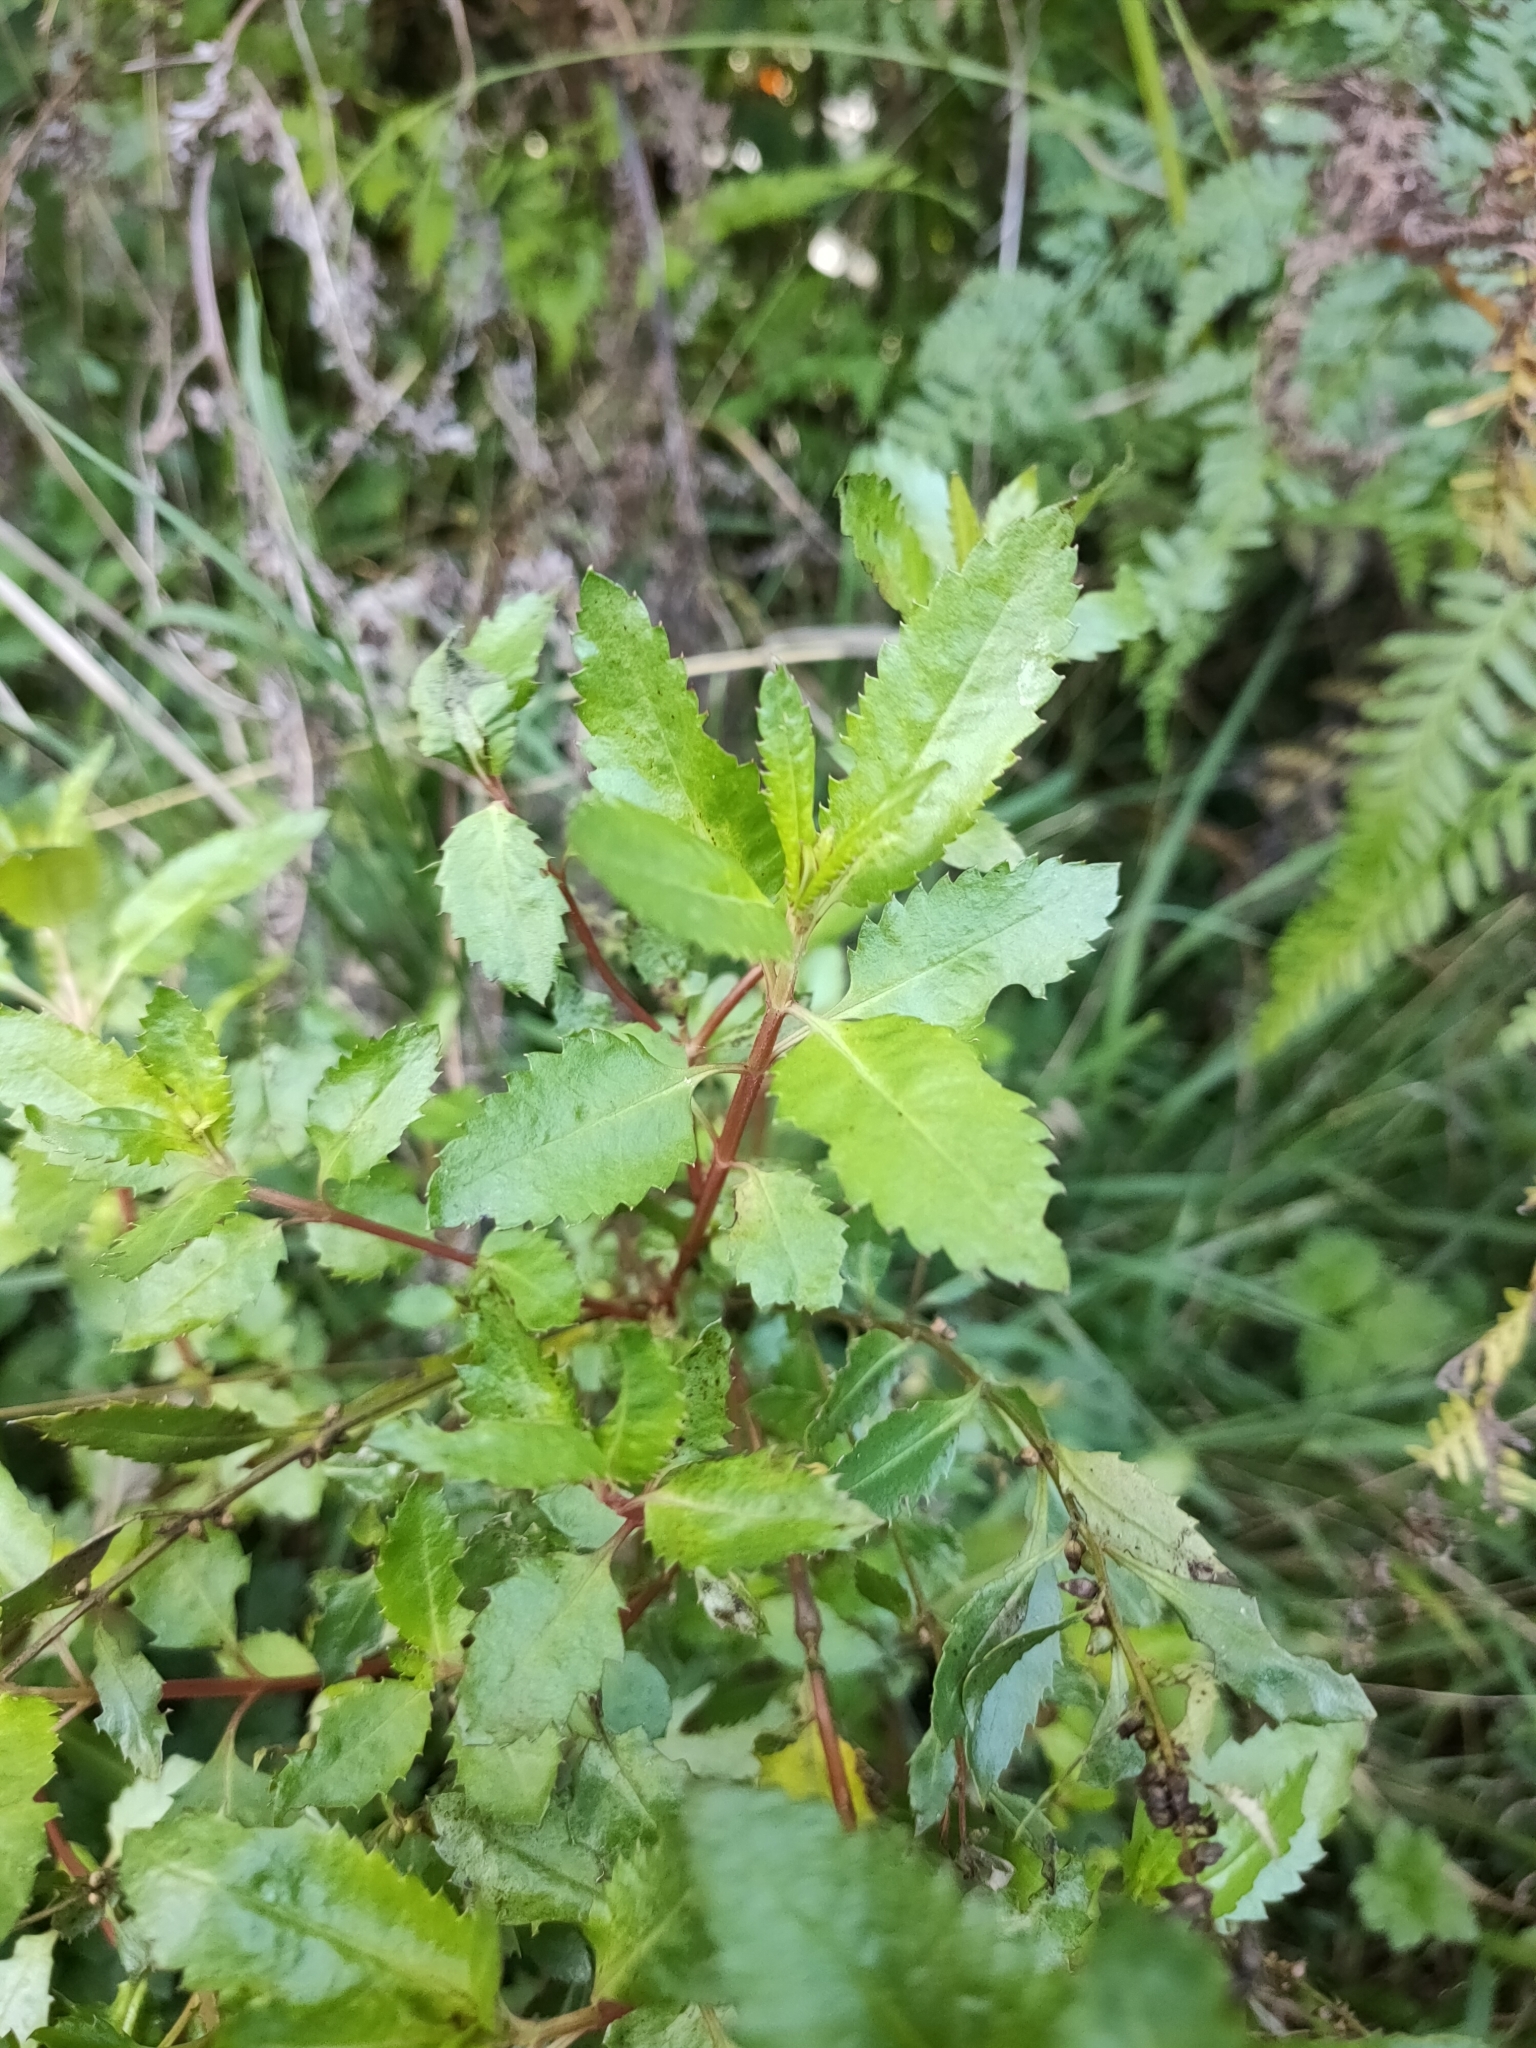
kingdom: Plantae
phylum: Tracheophyta
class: Magnoliopsida
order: Saxifragales
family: Haloragaceae
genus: Haloragis
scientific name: Haloragis erecta
